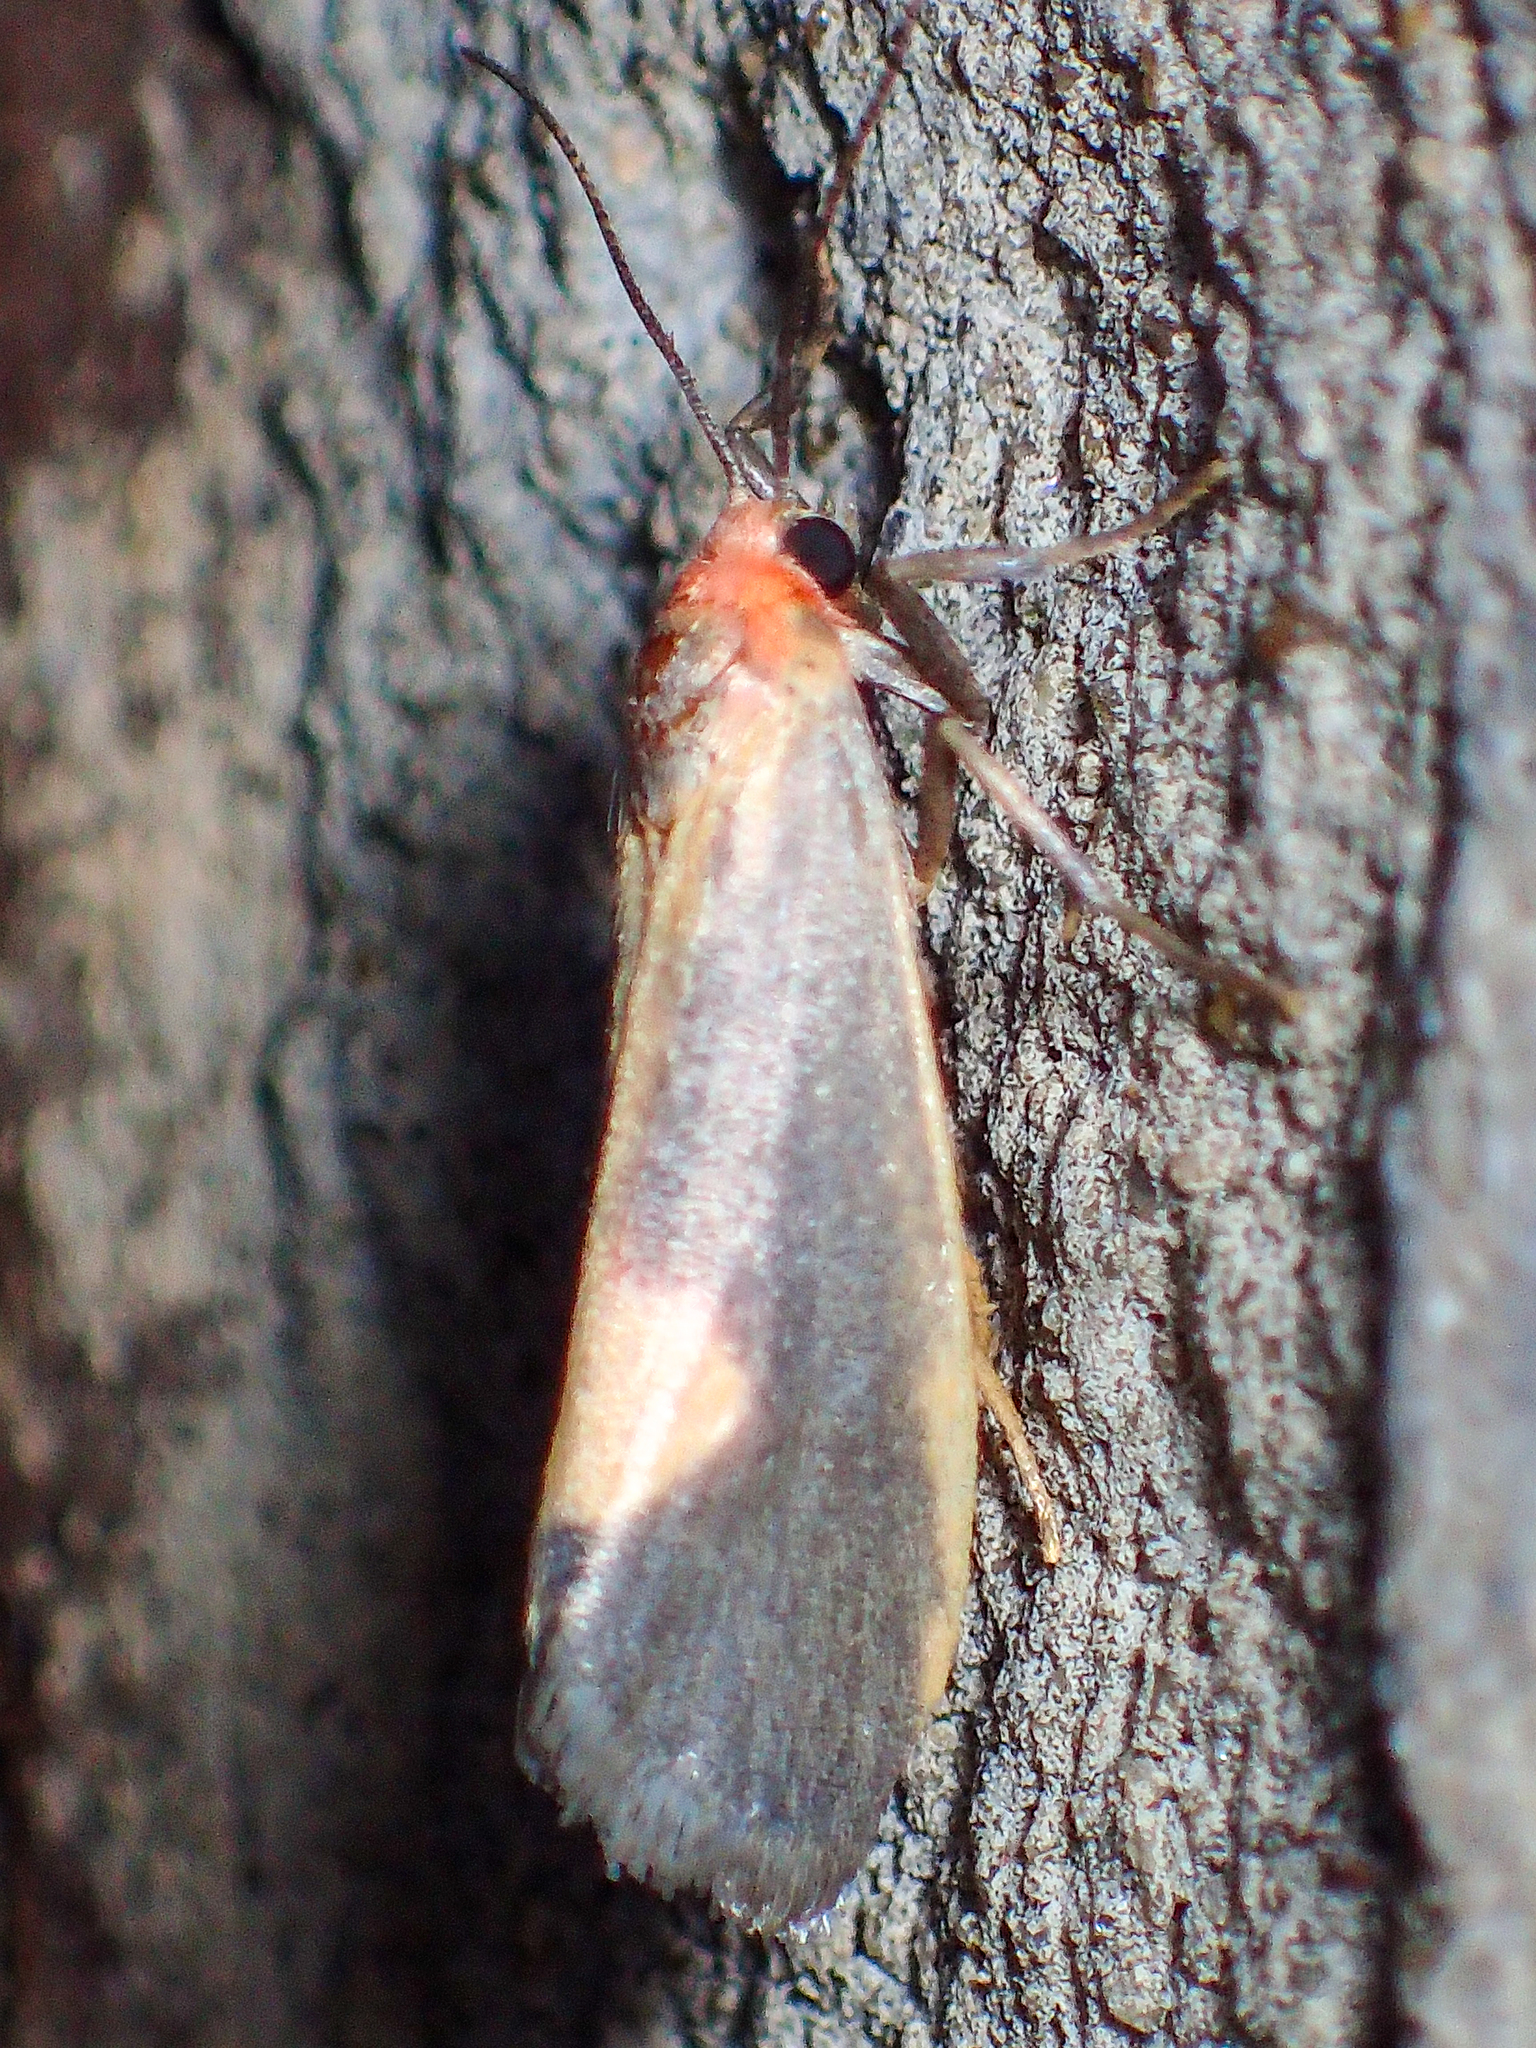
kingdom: Animalia
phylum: Arthropoda
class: Insecta
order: Lepidoptera
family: Erebidae
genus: Cisthene
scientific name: Cisthene plumbea
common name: Lead colored lichen moth
